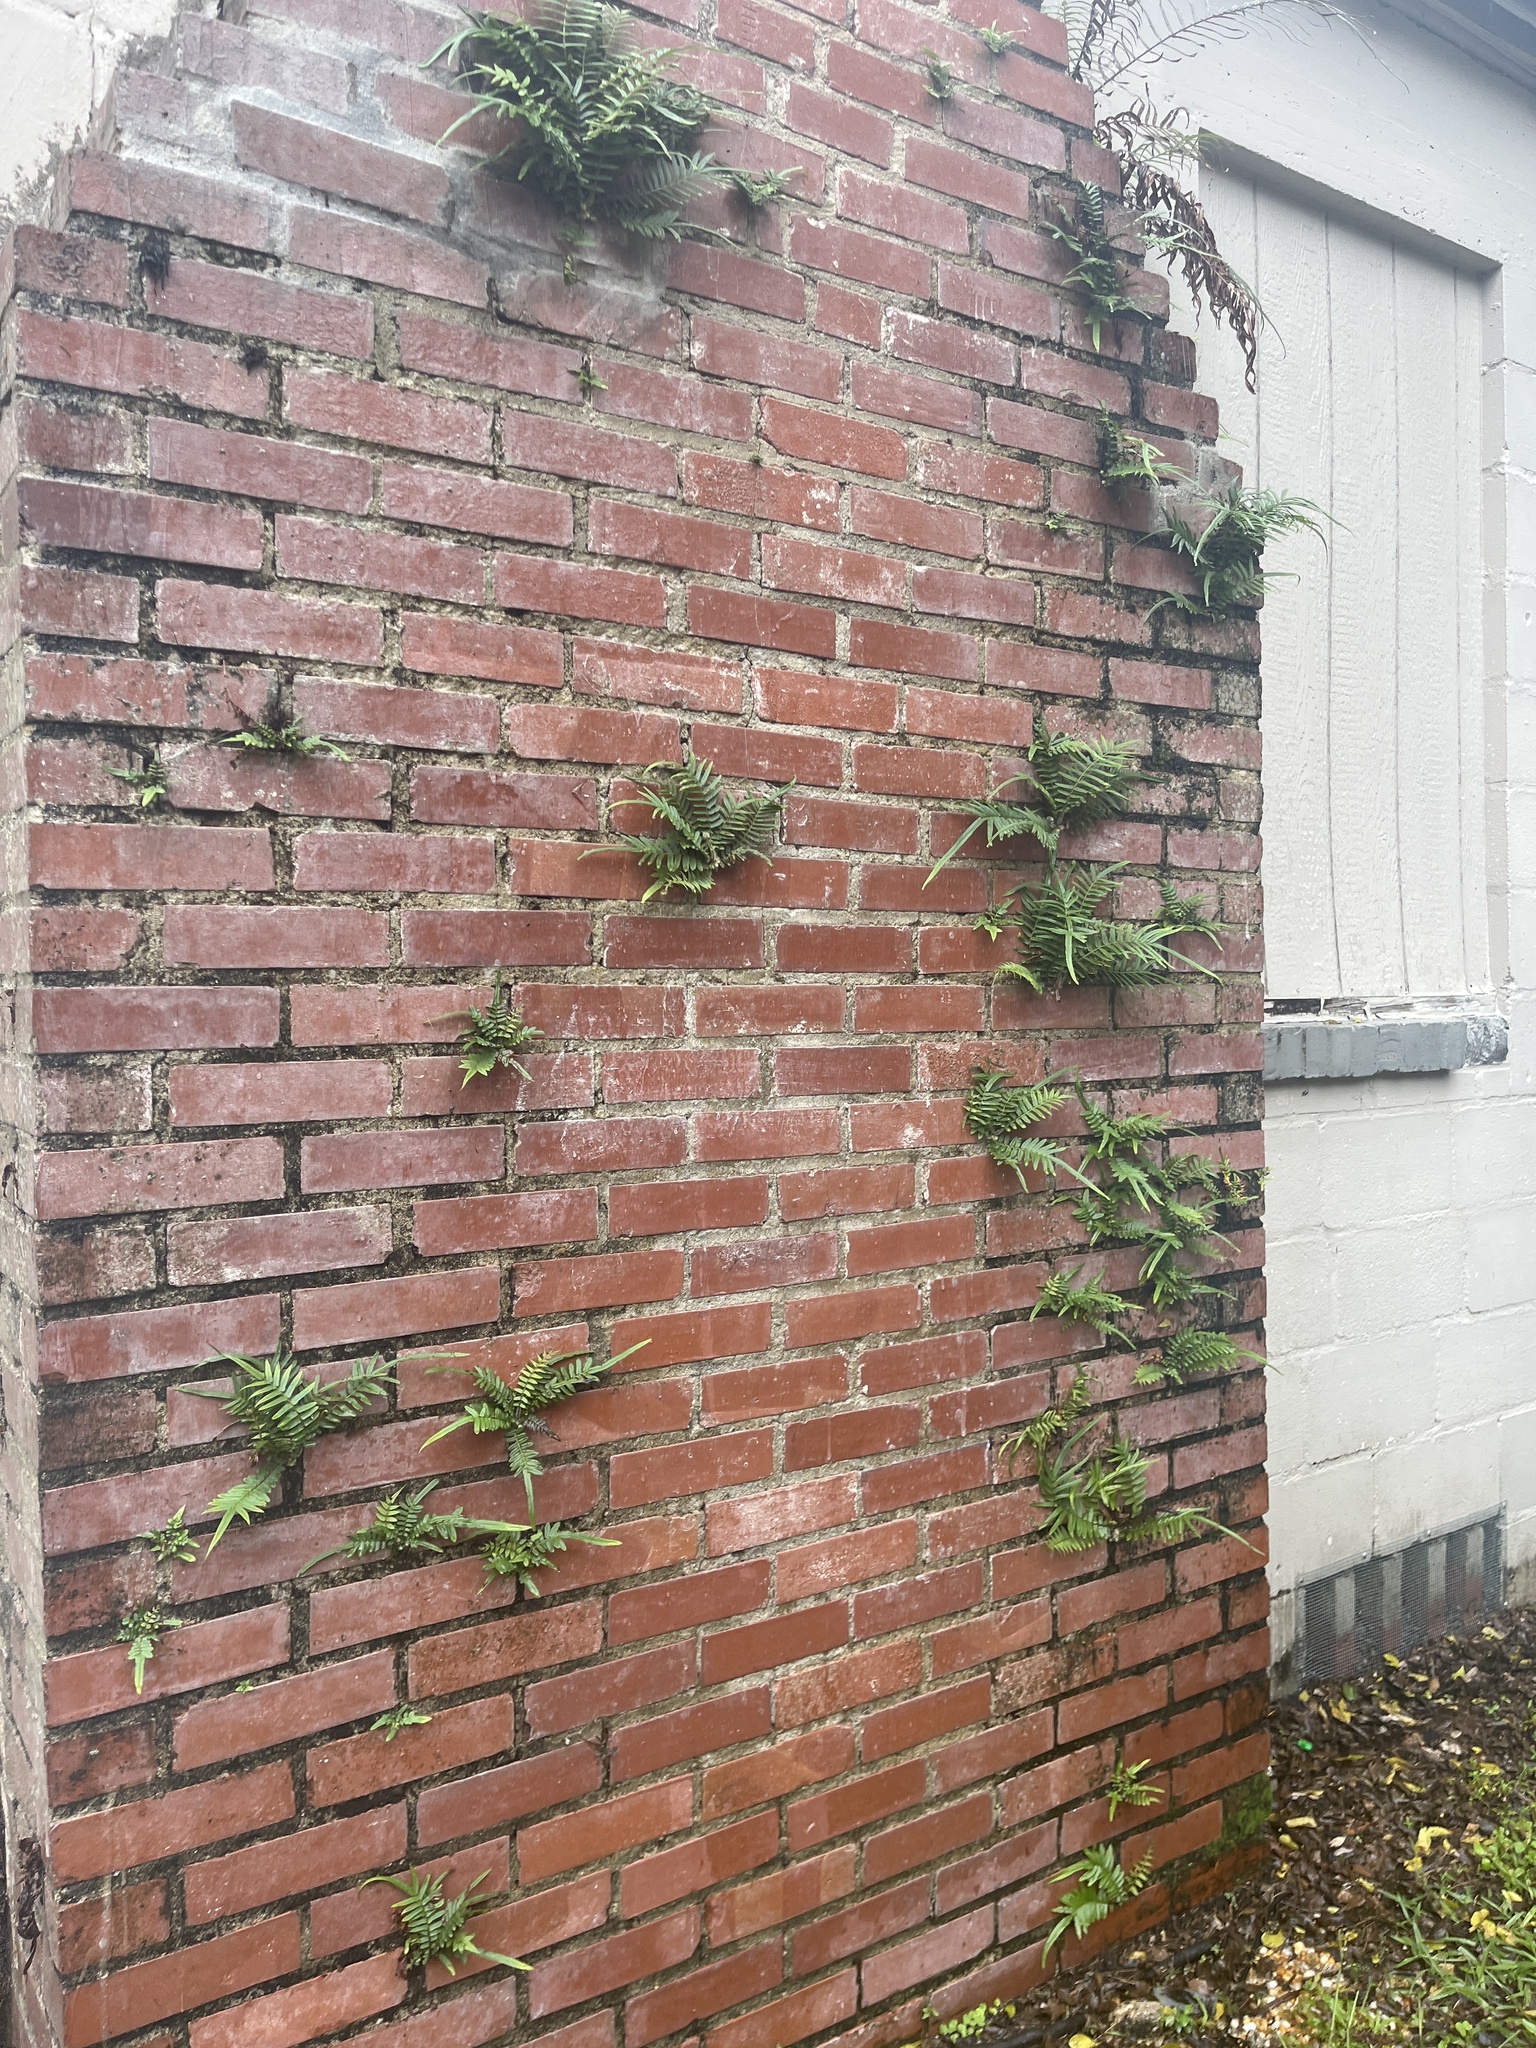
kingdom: Plantae
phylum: Tracheophyta
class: Polypodiopsida
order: Polypodiales
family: Pteridaceae
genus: Pteris
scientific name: Pteris vittata
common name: Ladder brake
